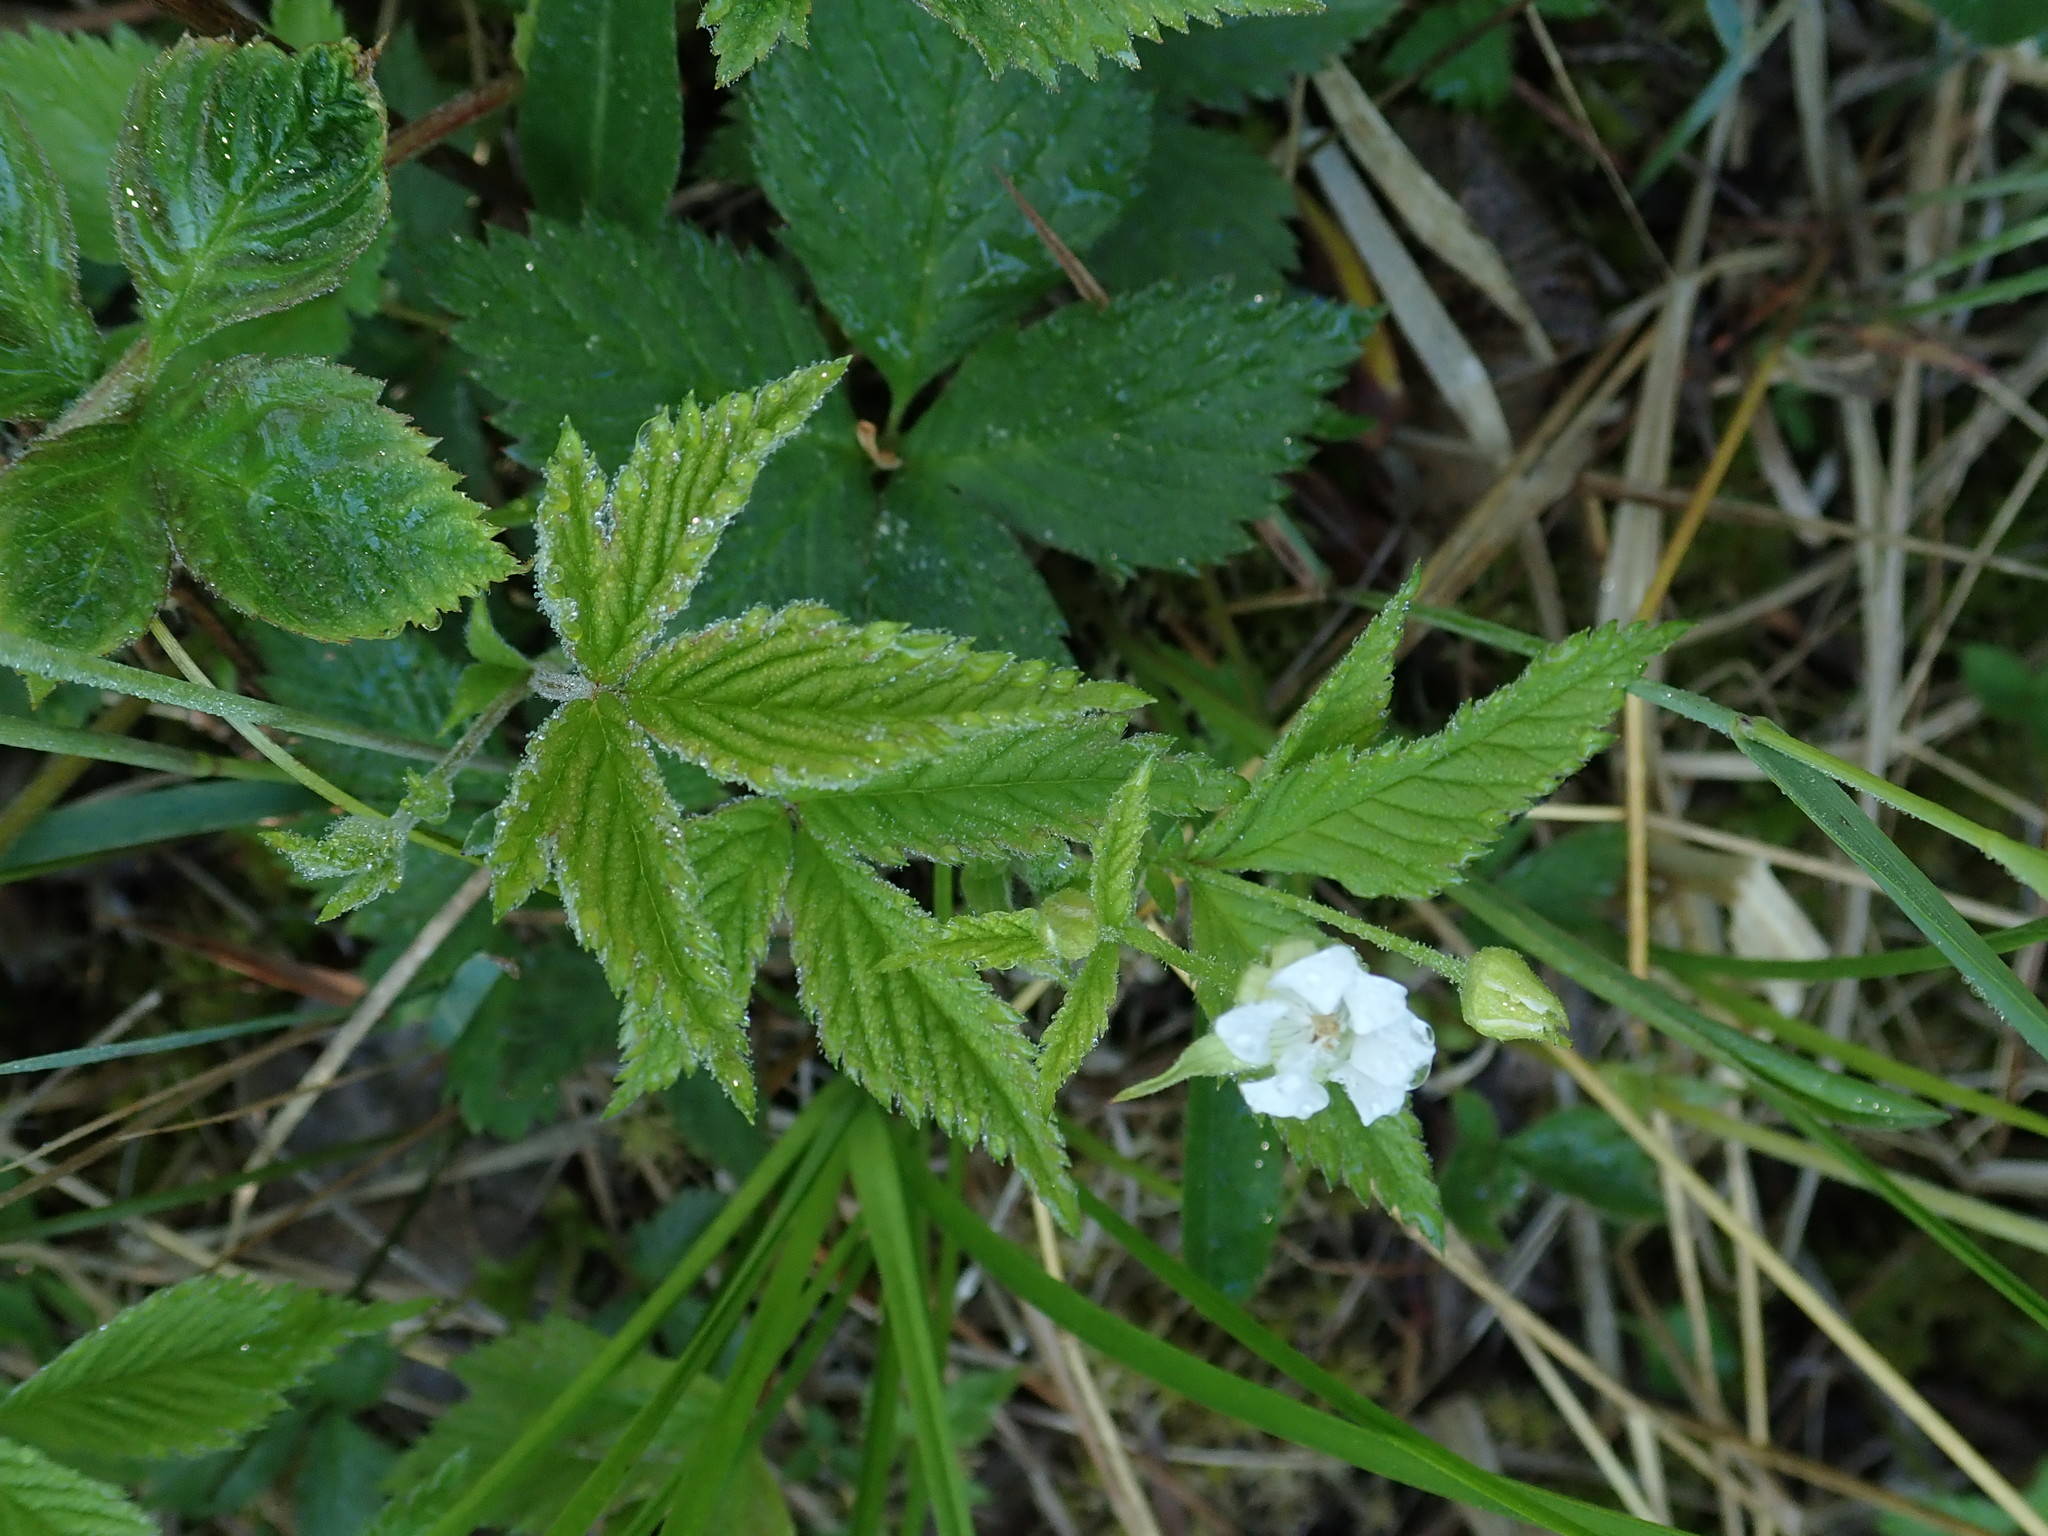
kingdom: Plantae
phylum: Tracheophyta
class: Magnoliopsida
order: Rosales
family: Rosaceae
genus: Rubus
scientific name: Rubus pubescens
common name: Dwarf raspberry
